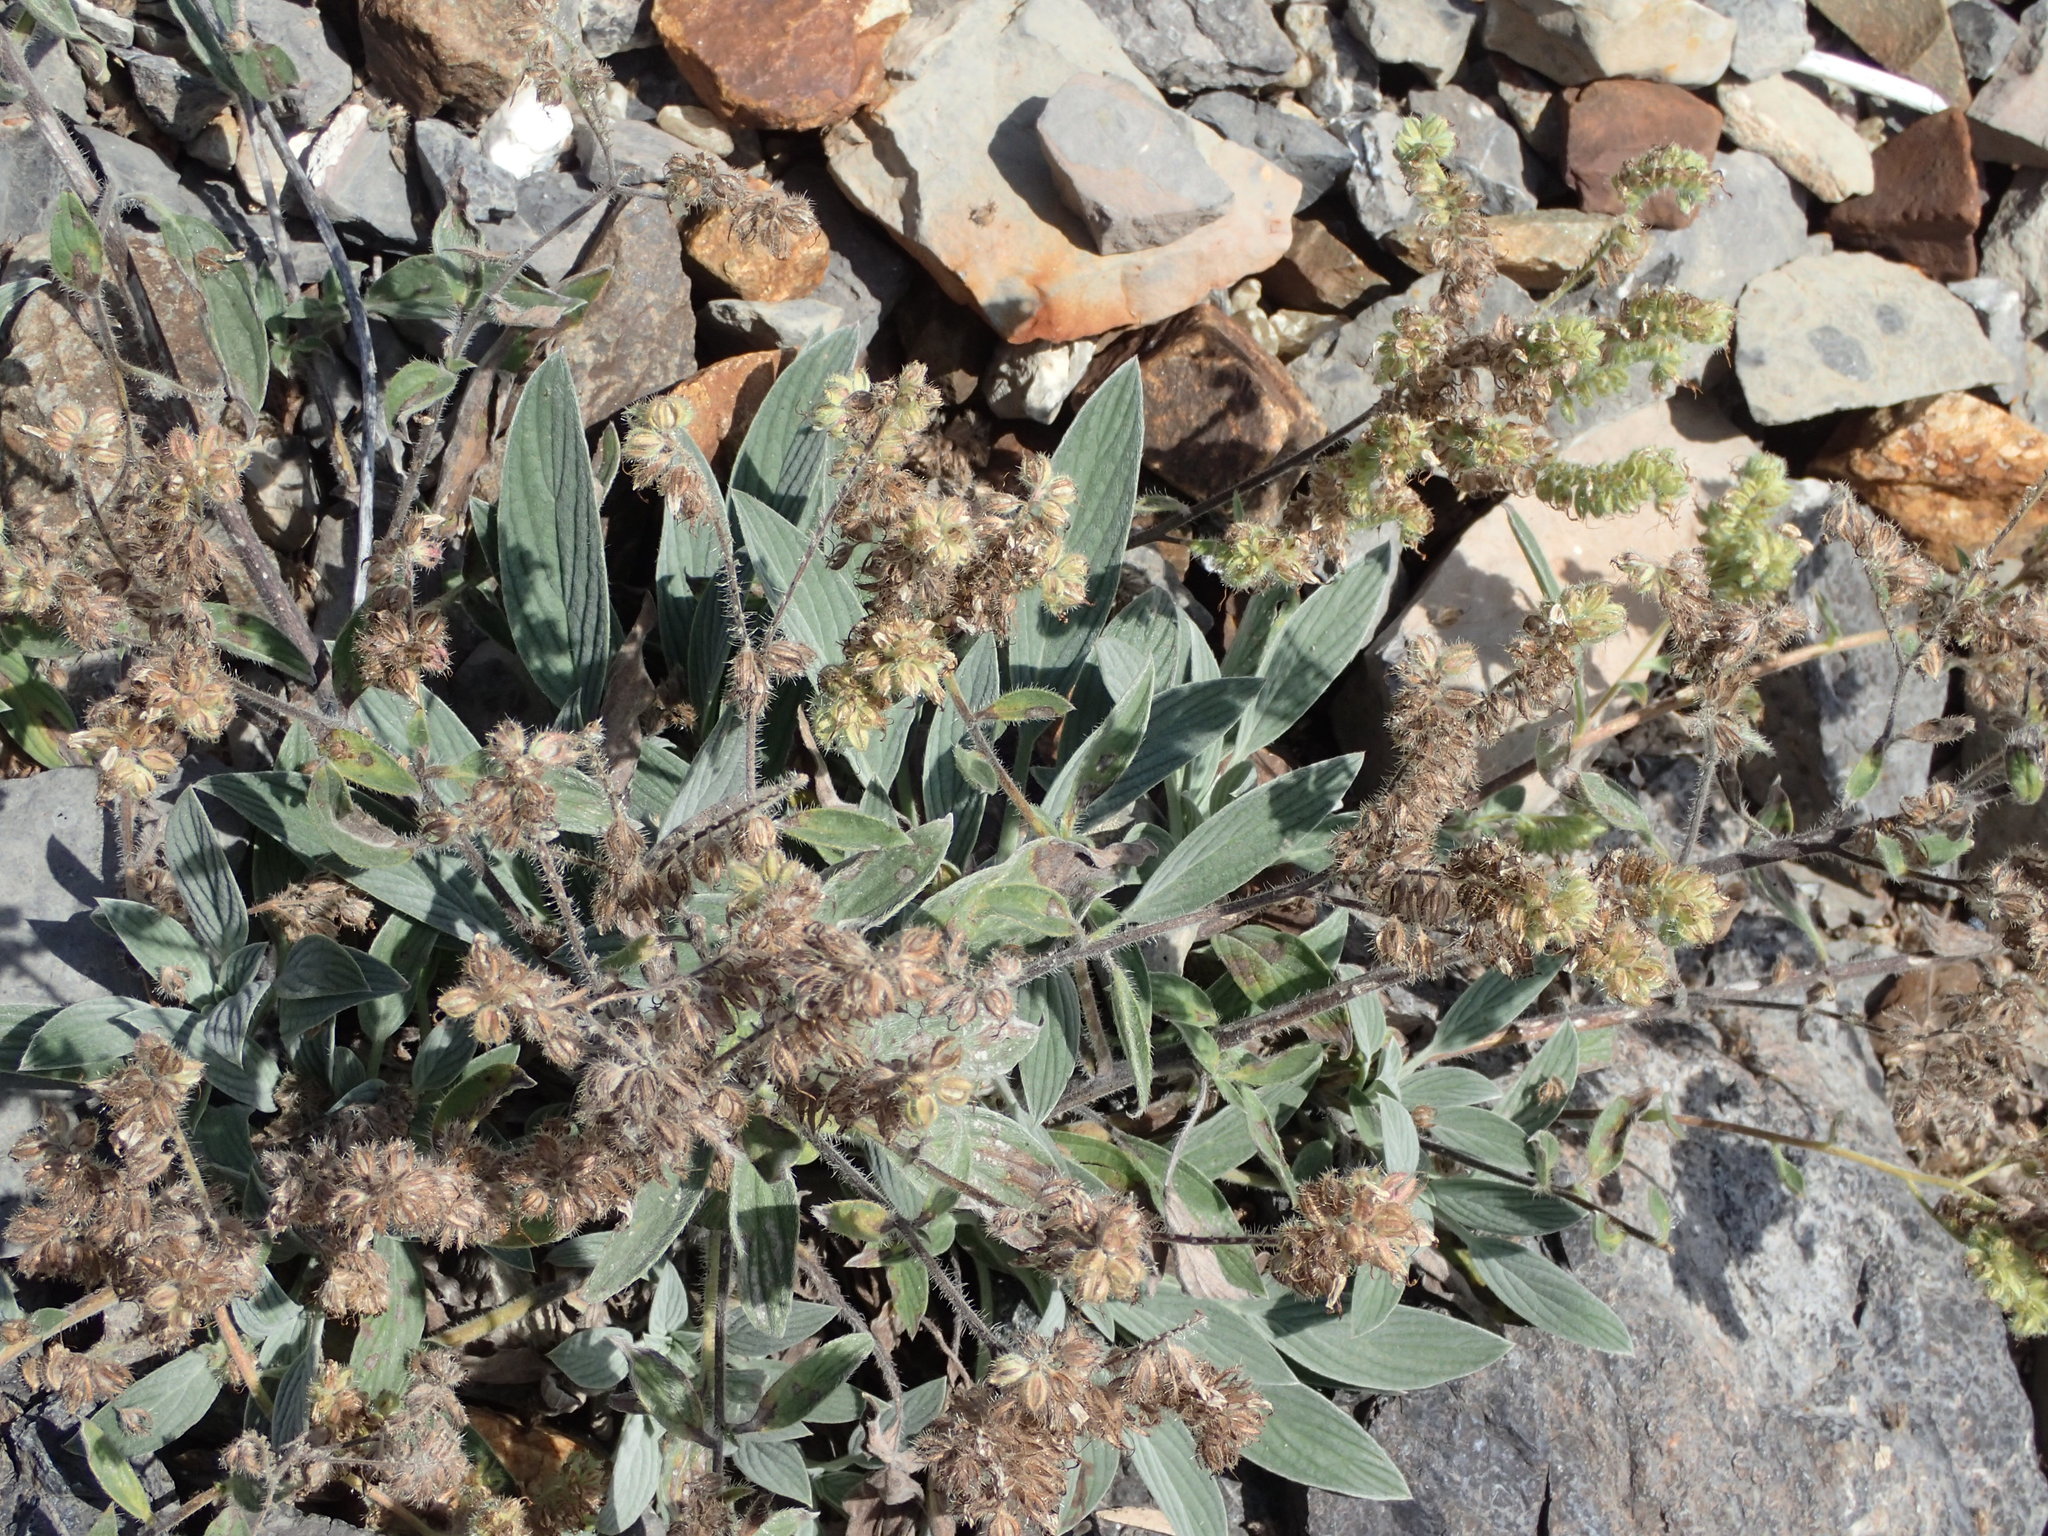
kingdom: Plantae
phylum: Tracheophyta
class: Magnoliopsida
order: Boraginales
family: Hydrophyllaceae
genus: Phacelia
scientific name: Phacelia hastata
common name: Silver-leaved phacelia
